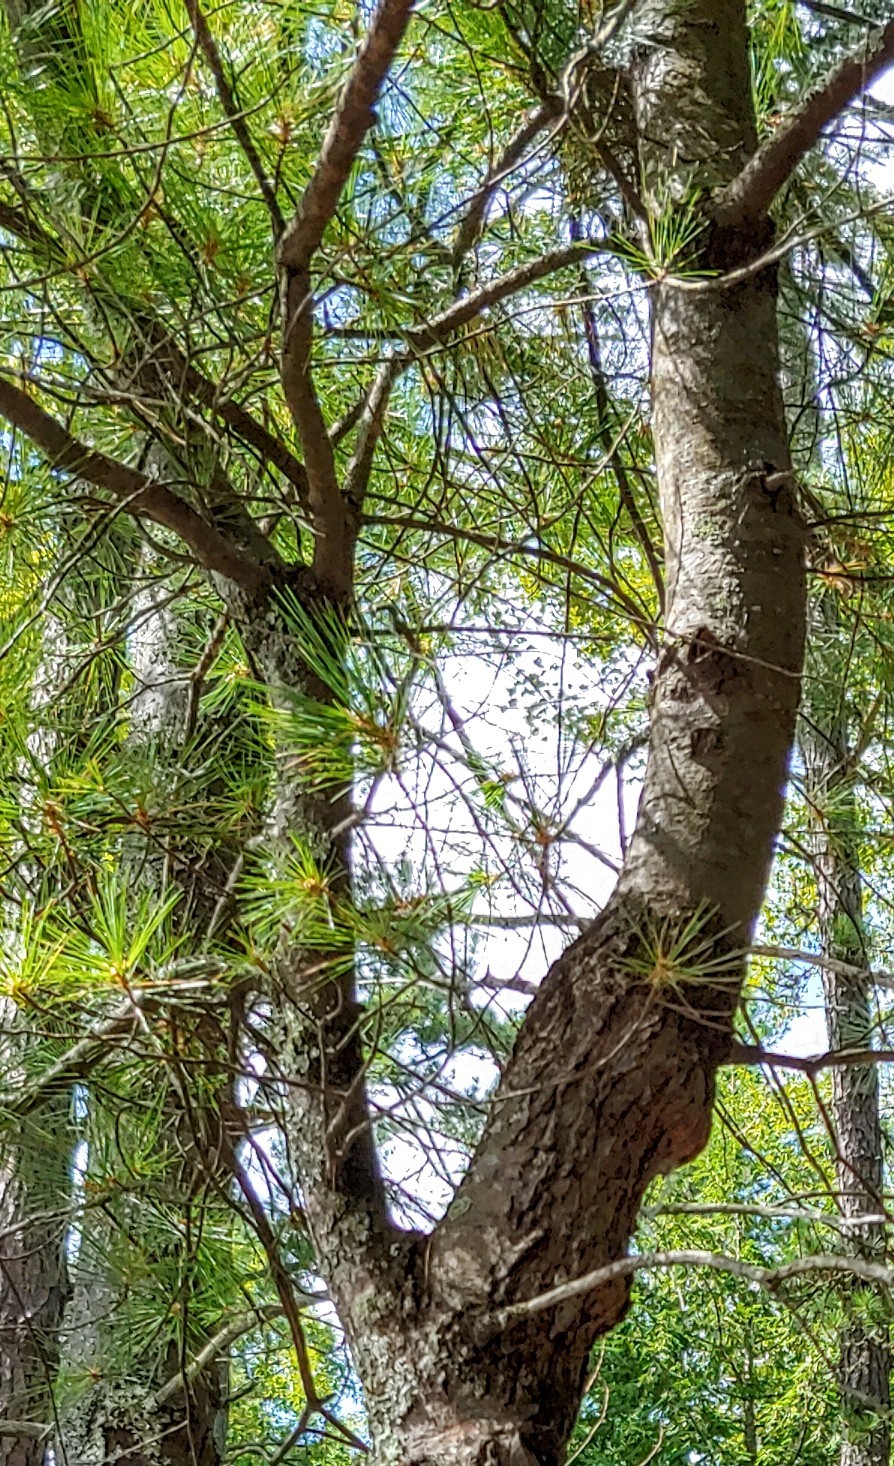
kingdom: Plantae
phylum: Tracheophyta
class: Pinopsida
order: Pinales
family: Pinaceae
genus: Pinus
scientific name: Pinus strobus
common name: Weymouth pine
